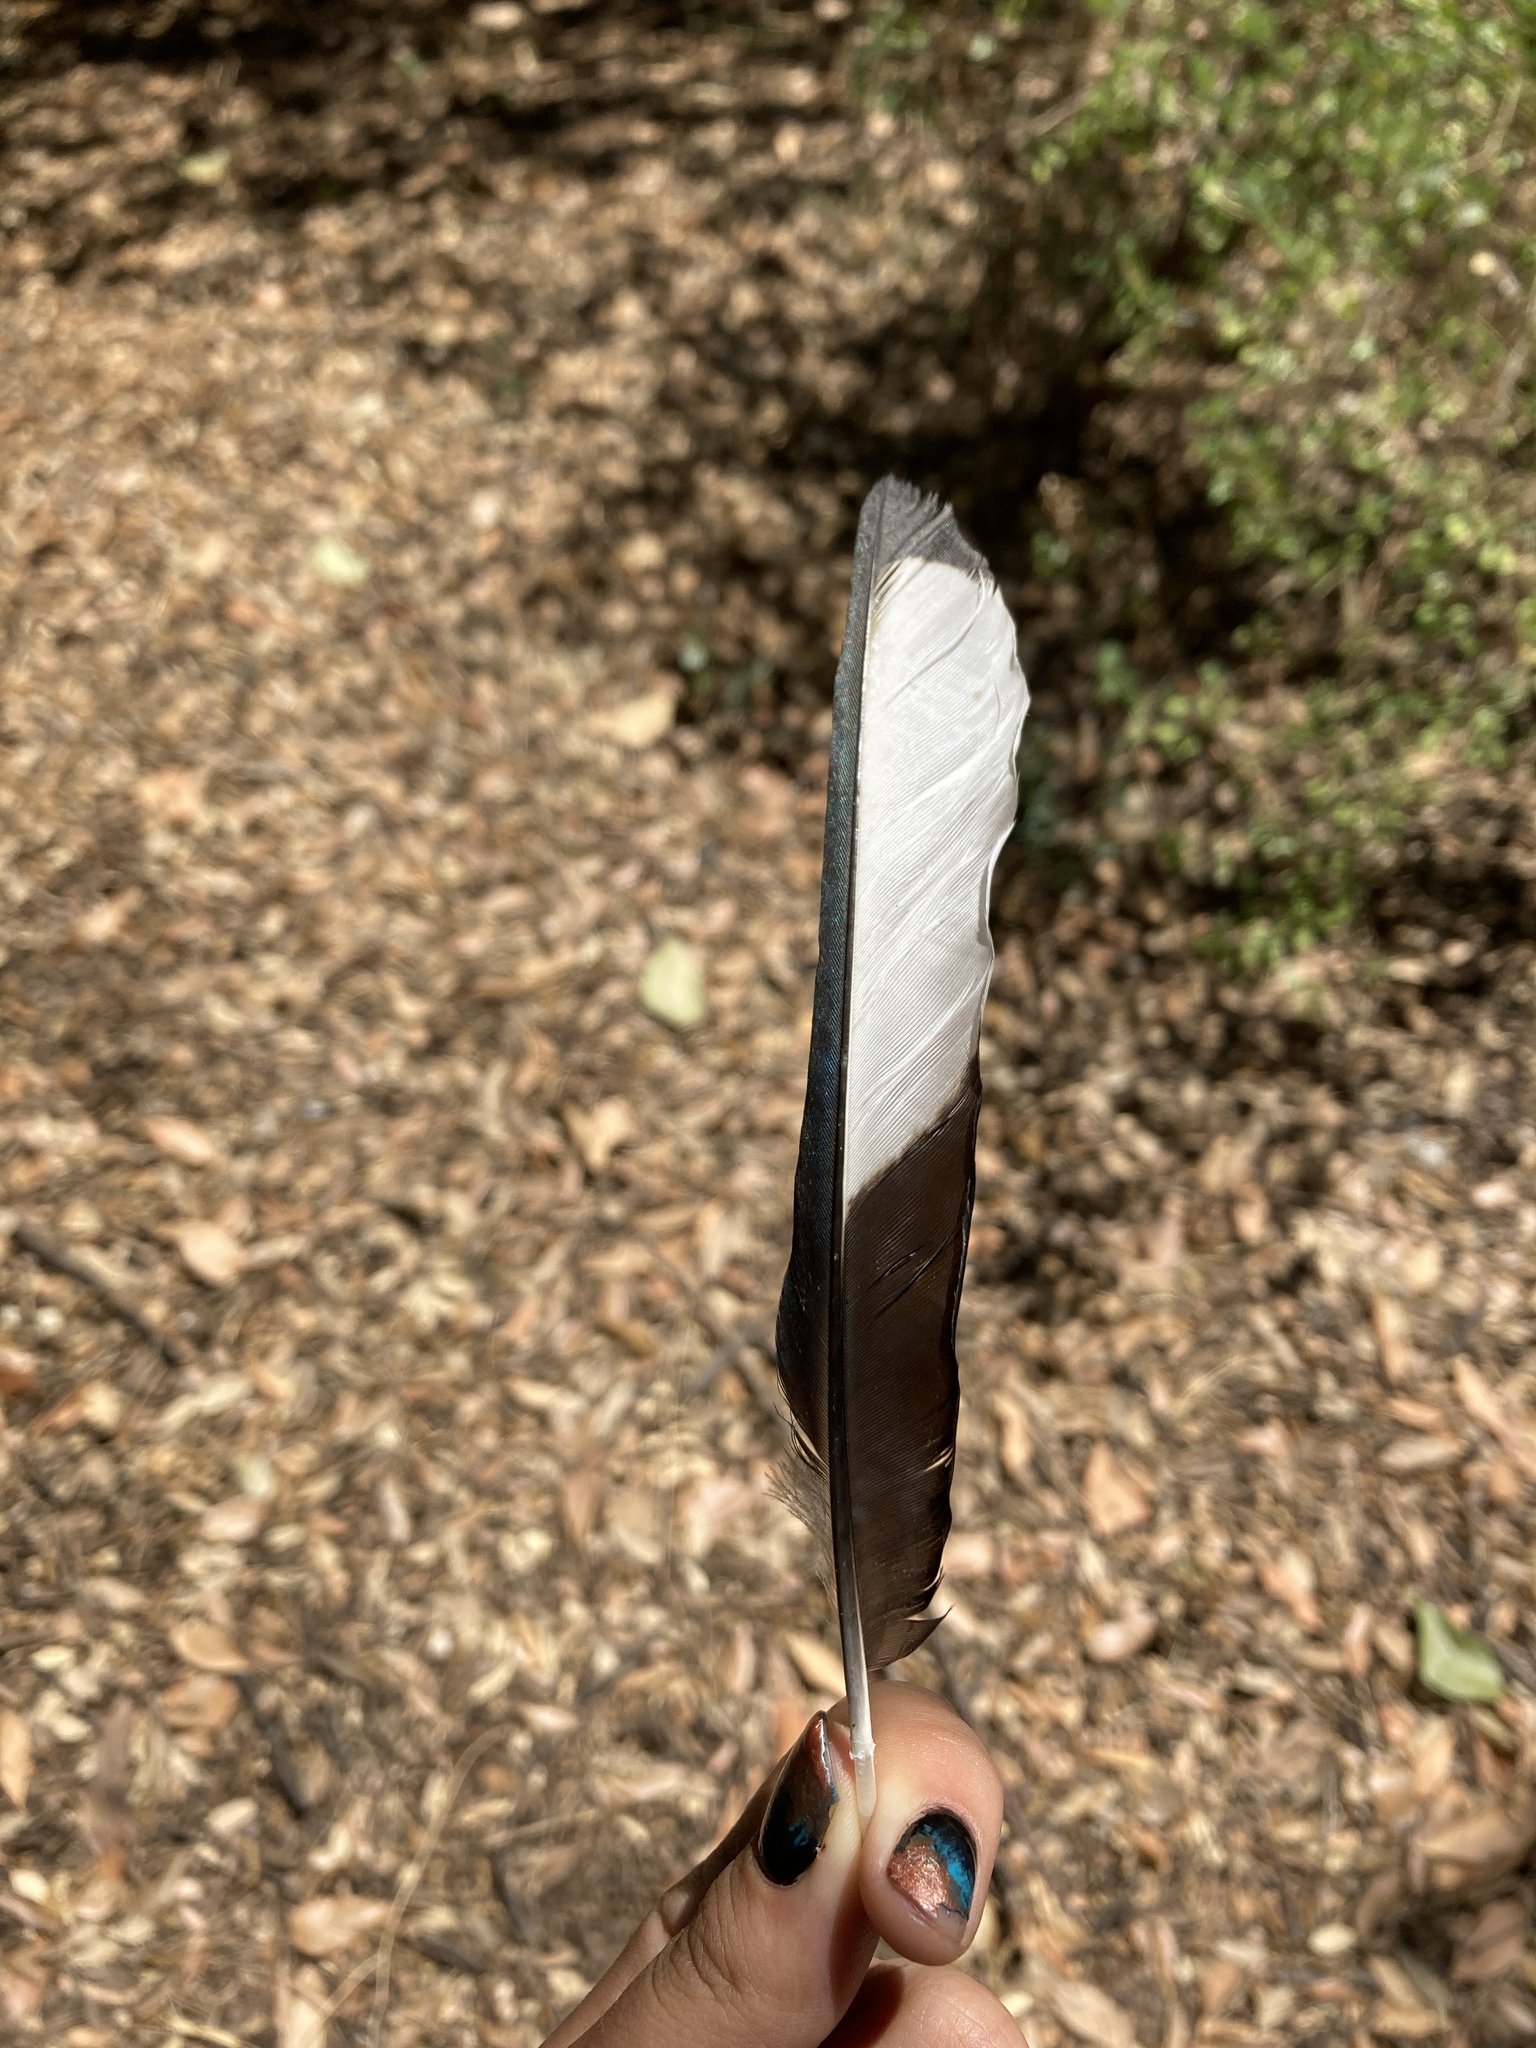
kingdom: Animalia
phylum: Chordata
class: Aves
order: Passeriformes
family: Corvidae
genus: Pica
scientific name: Pica pica
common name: Eurasian magpie
